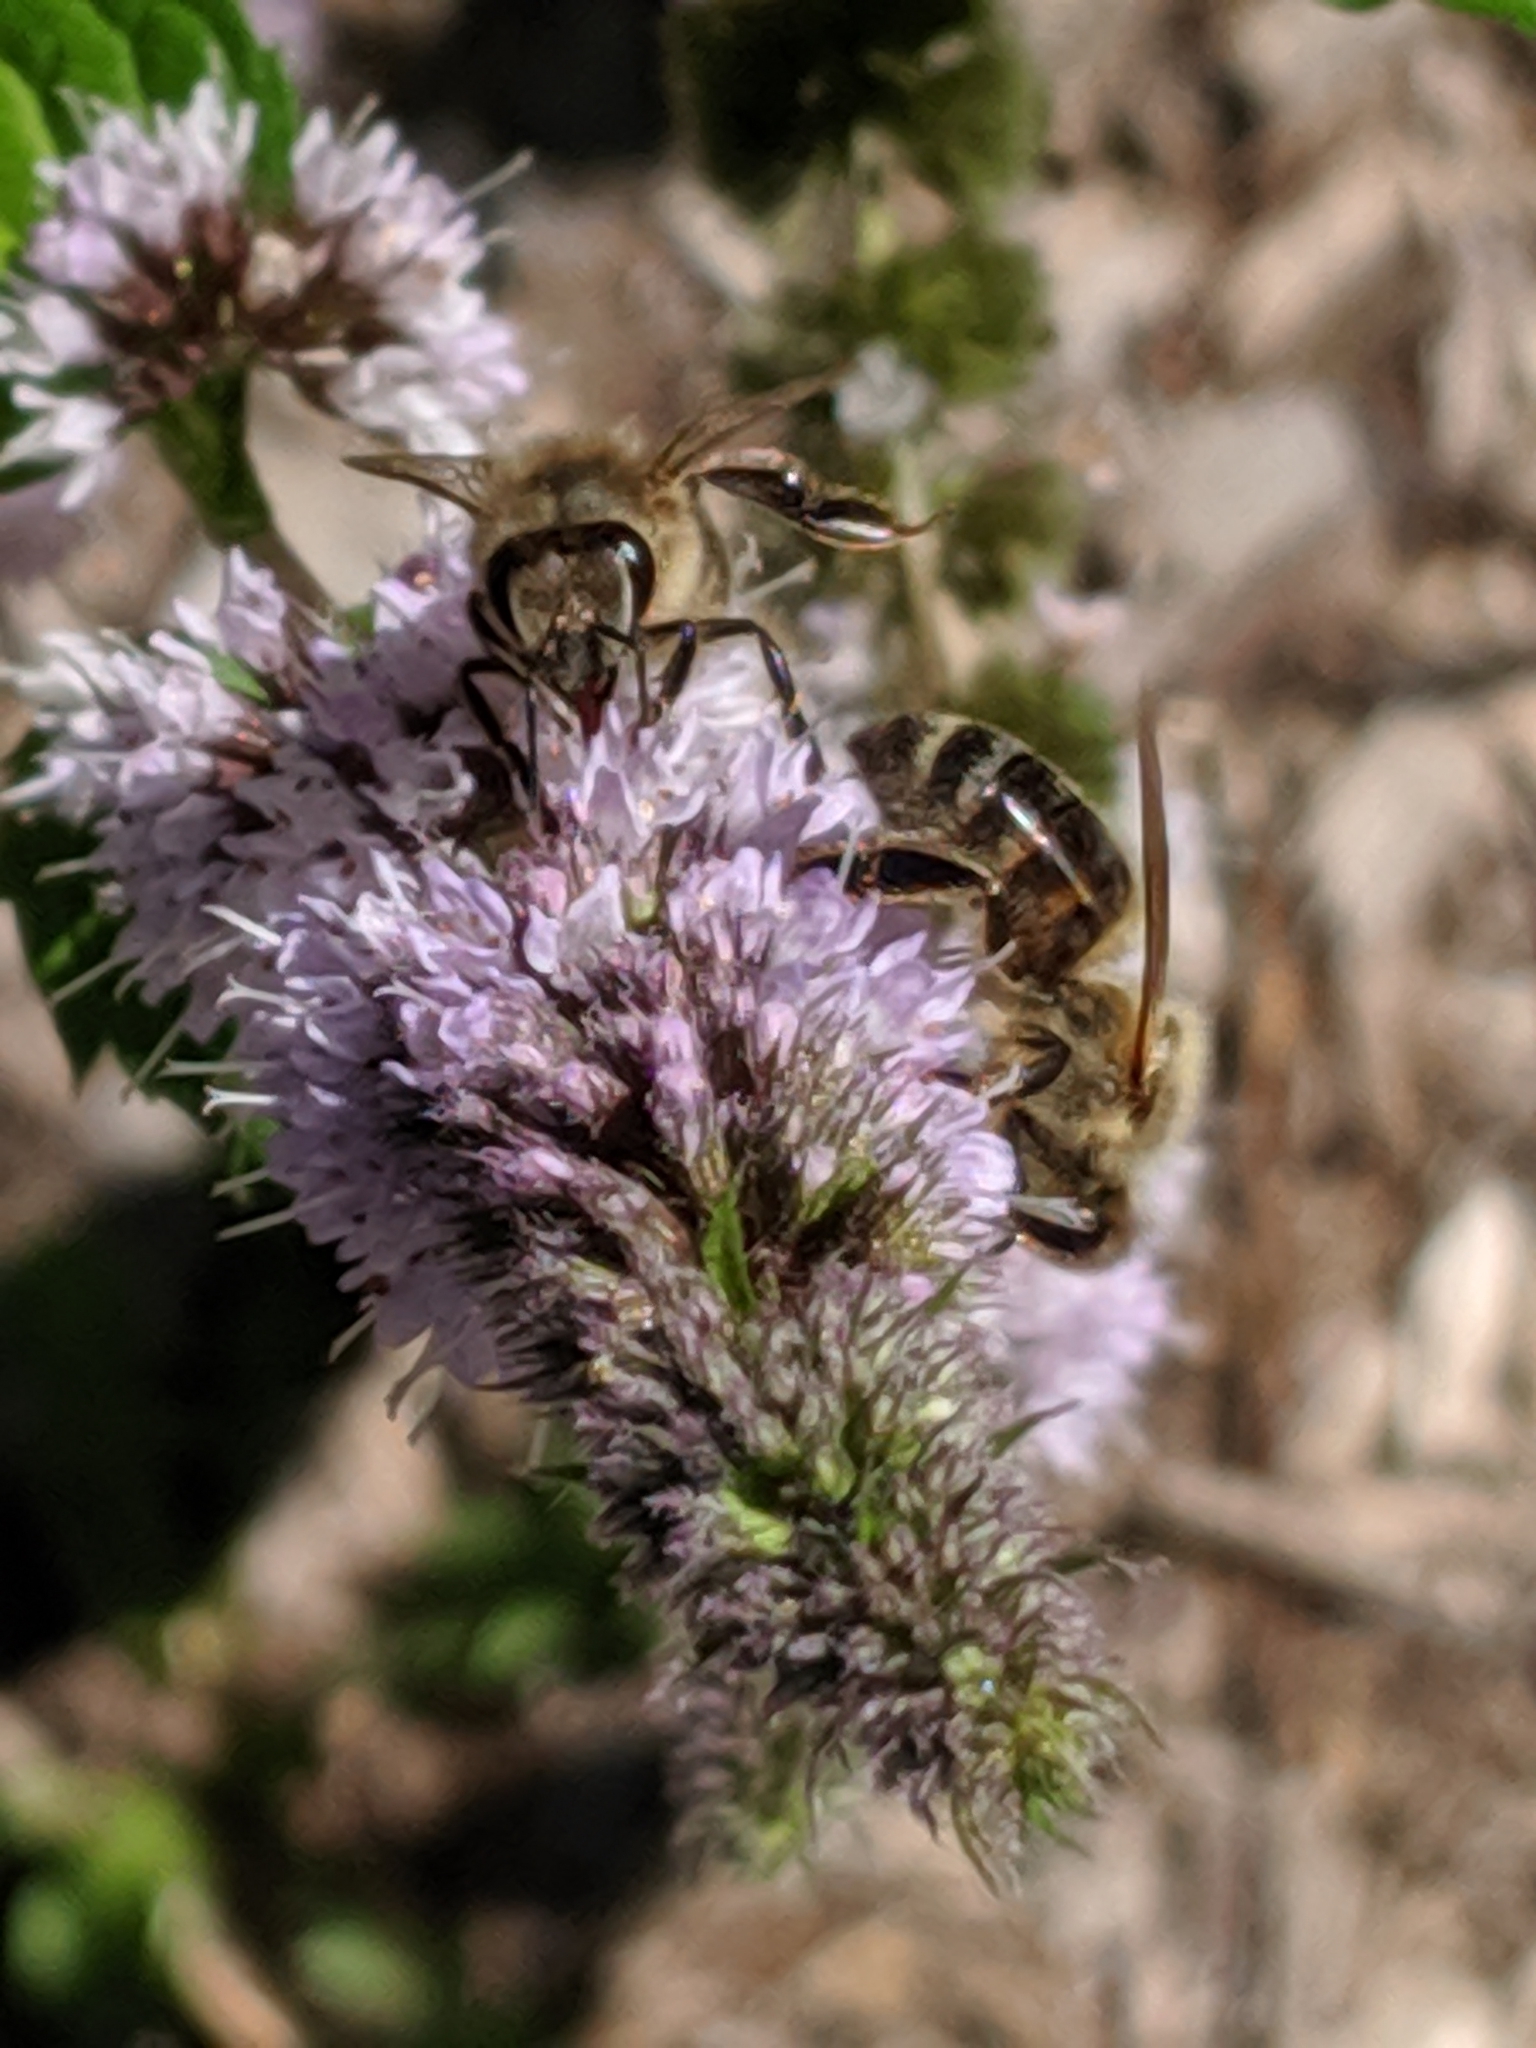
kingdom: Animalia
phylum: Arthropoda
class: Insecta
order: Hymenoptera
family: Apidae
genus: Apis
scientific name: Apis mellifera
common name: Honey bee
